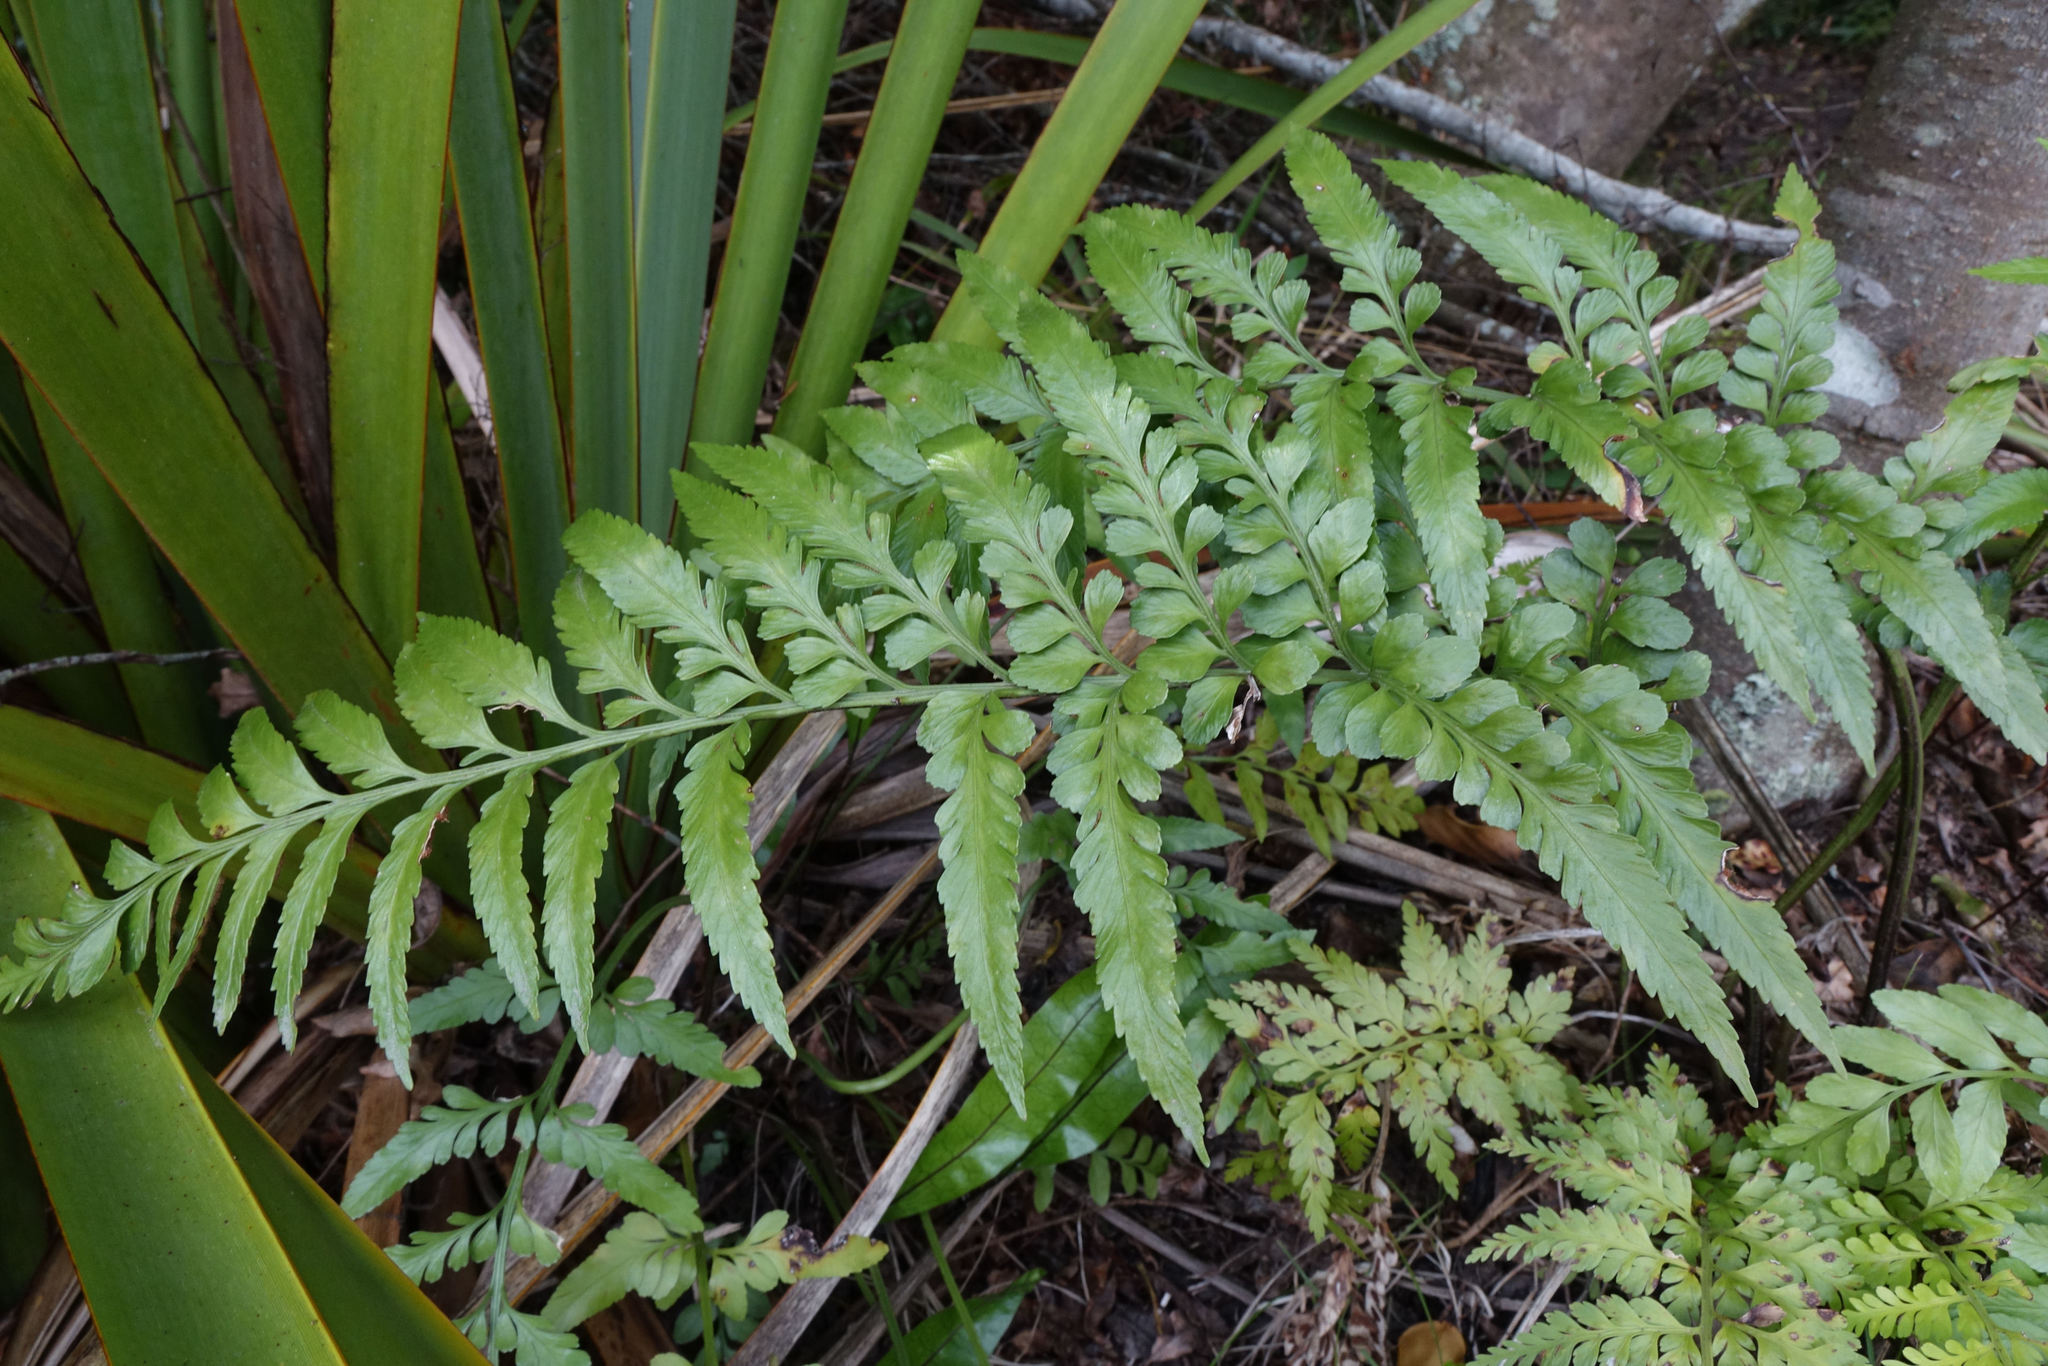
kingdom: Plantae
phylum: Tracheophyta
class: Polypodiopsida
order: Polypodiales
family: Aspleniaceae
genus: Asplenium
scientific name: Asplenium lyallii
